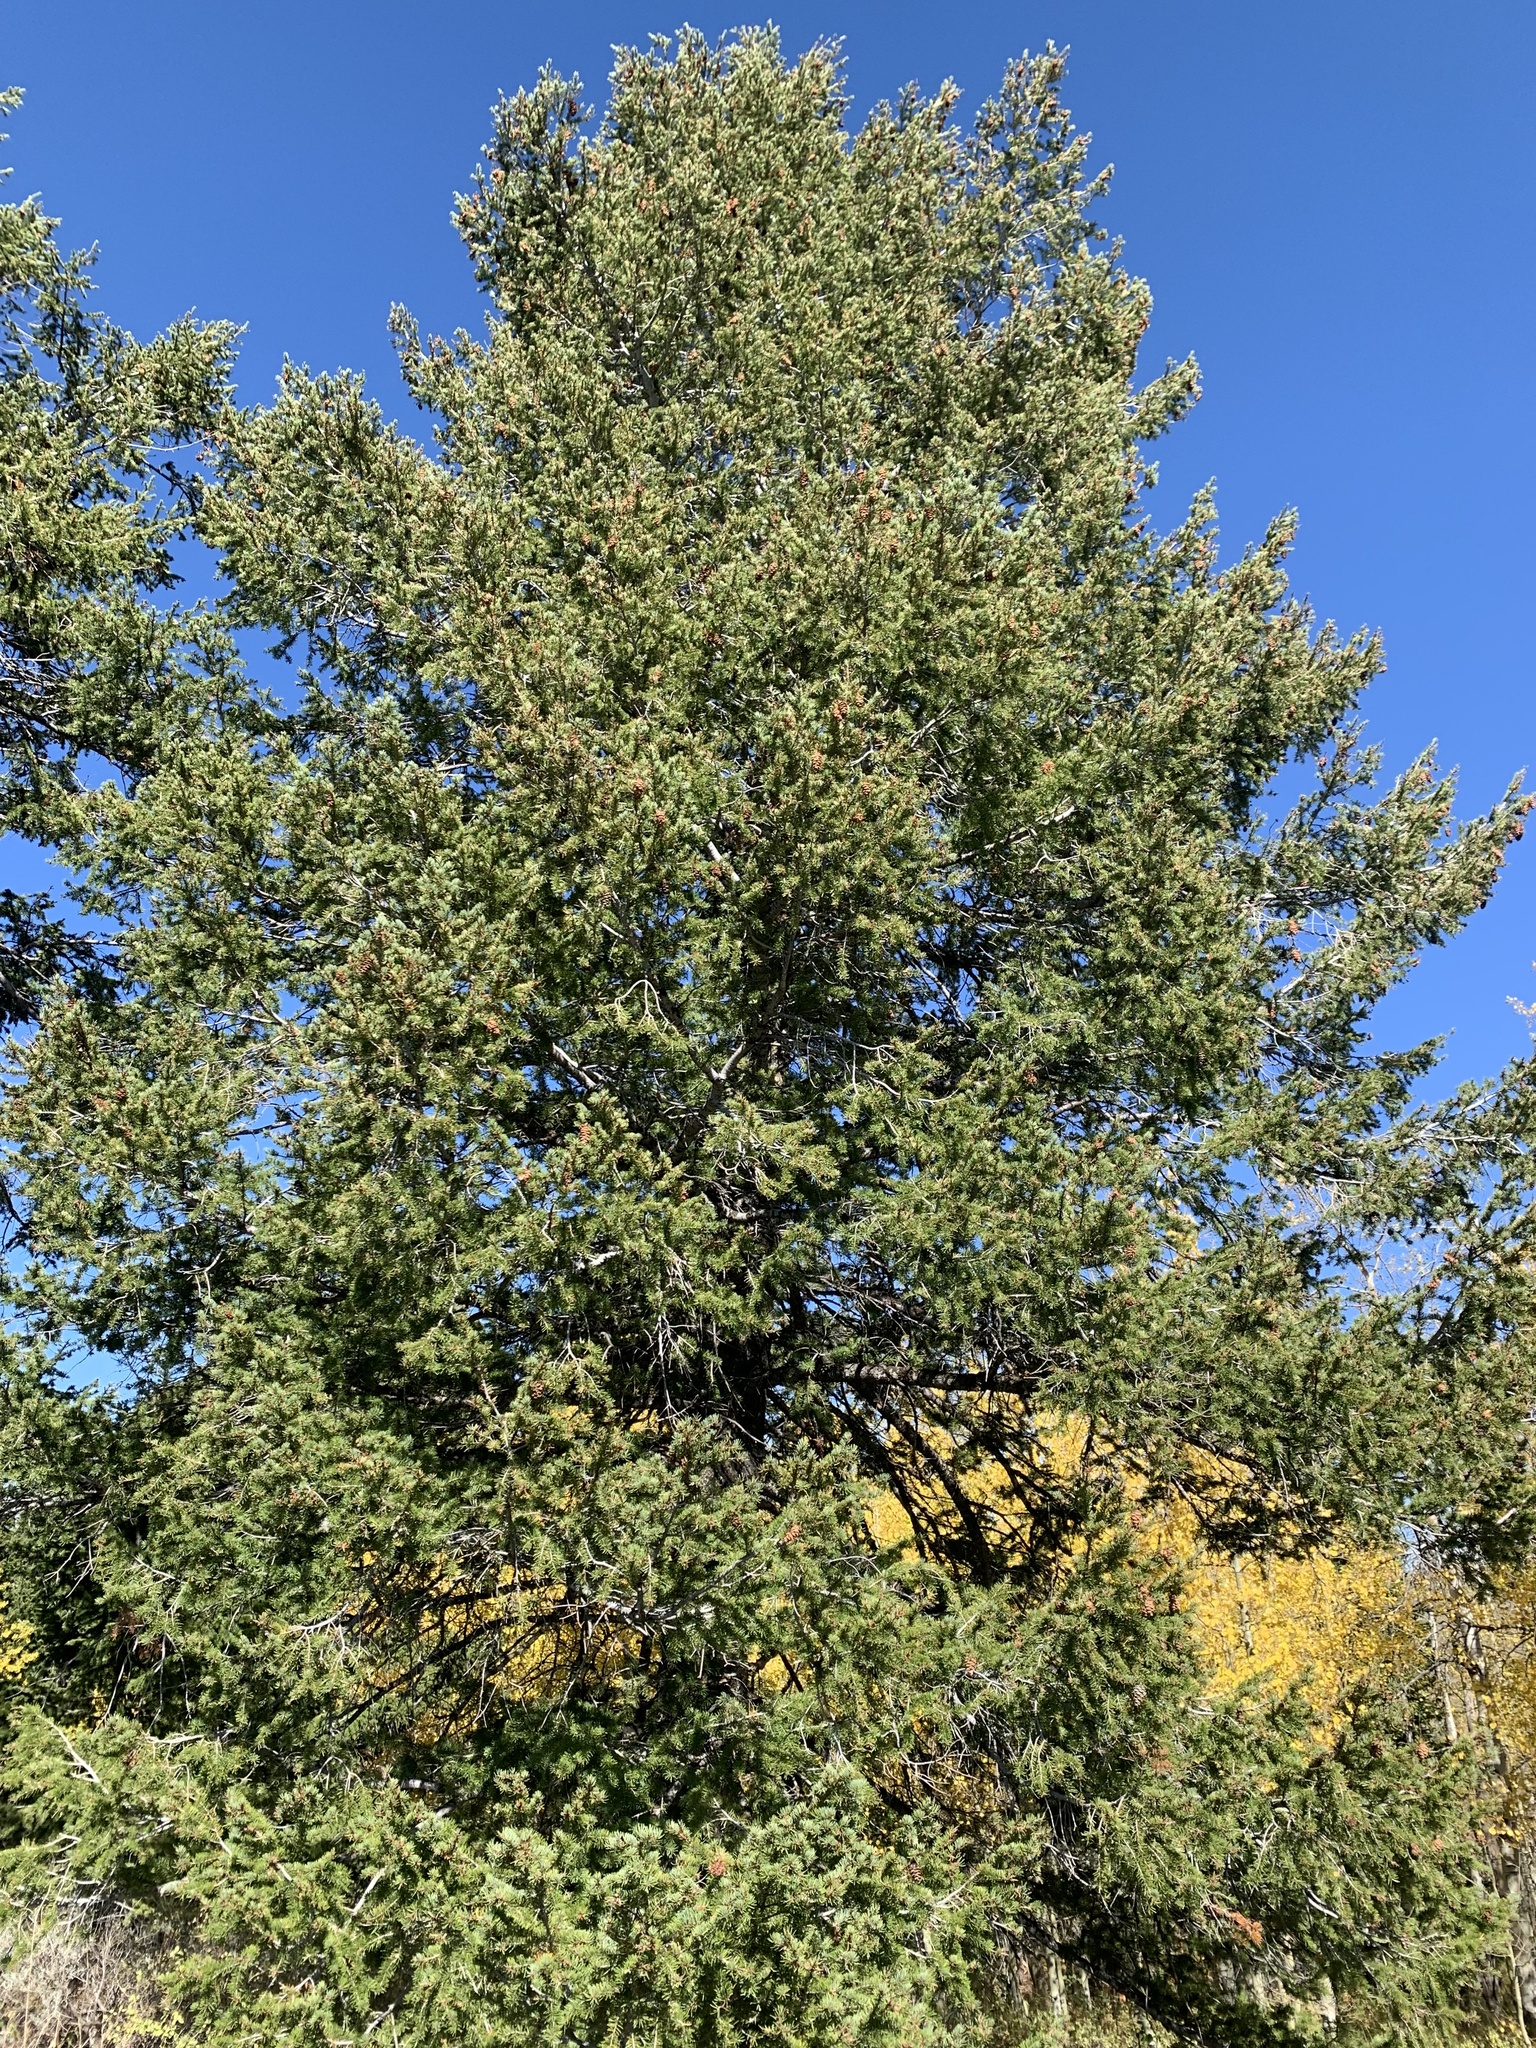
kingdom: Plantae
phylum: Tracheophyta
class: Pinopsida
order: Pinales
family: Pinaceae
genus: Pseudotsuga
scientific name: Pseudotsuga menziesii
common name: Douglas fir
